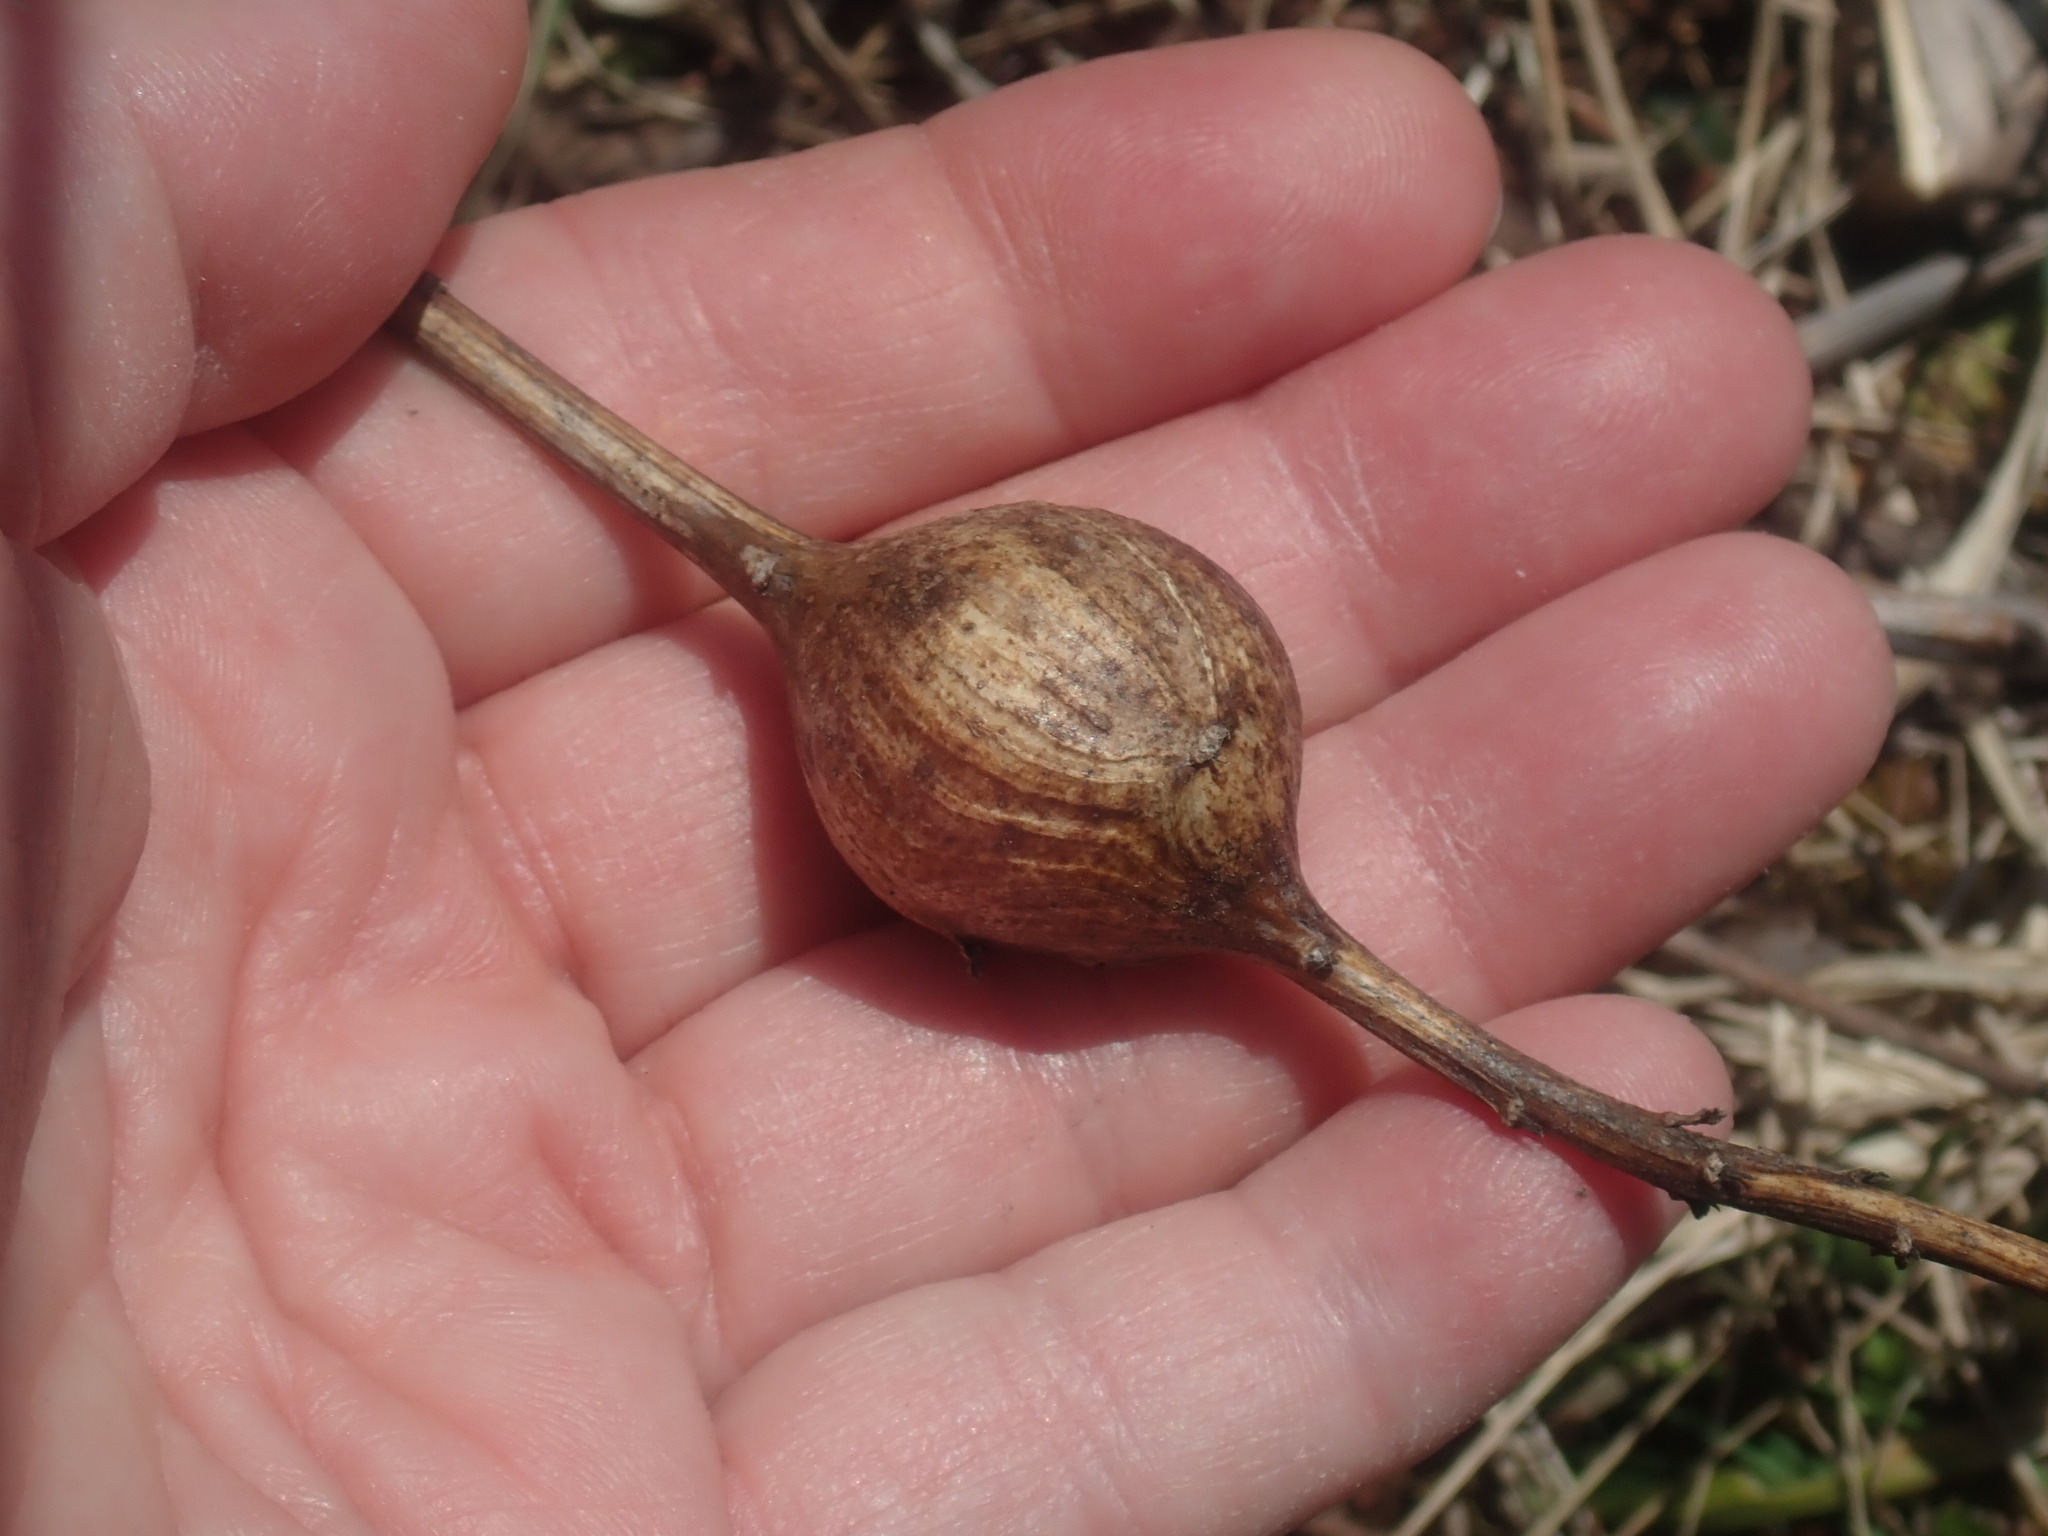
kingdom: Animalia
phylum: Arthropoda
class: Insecta
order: Diptera
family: Tephritidae
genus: Eurosta
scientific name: Eurosta solidaginis
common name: Goldenrod gall fly
